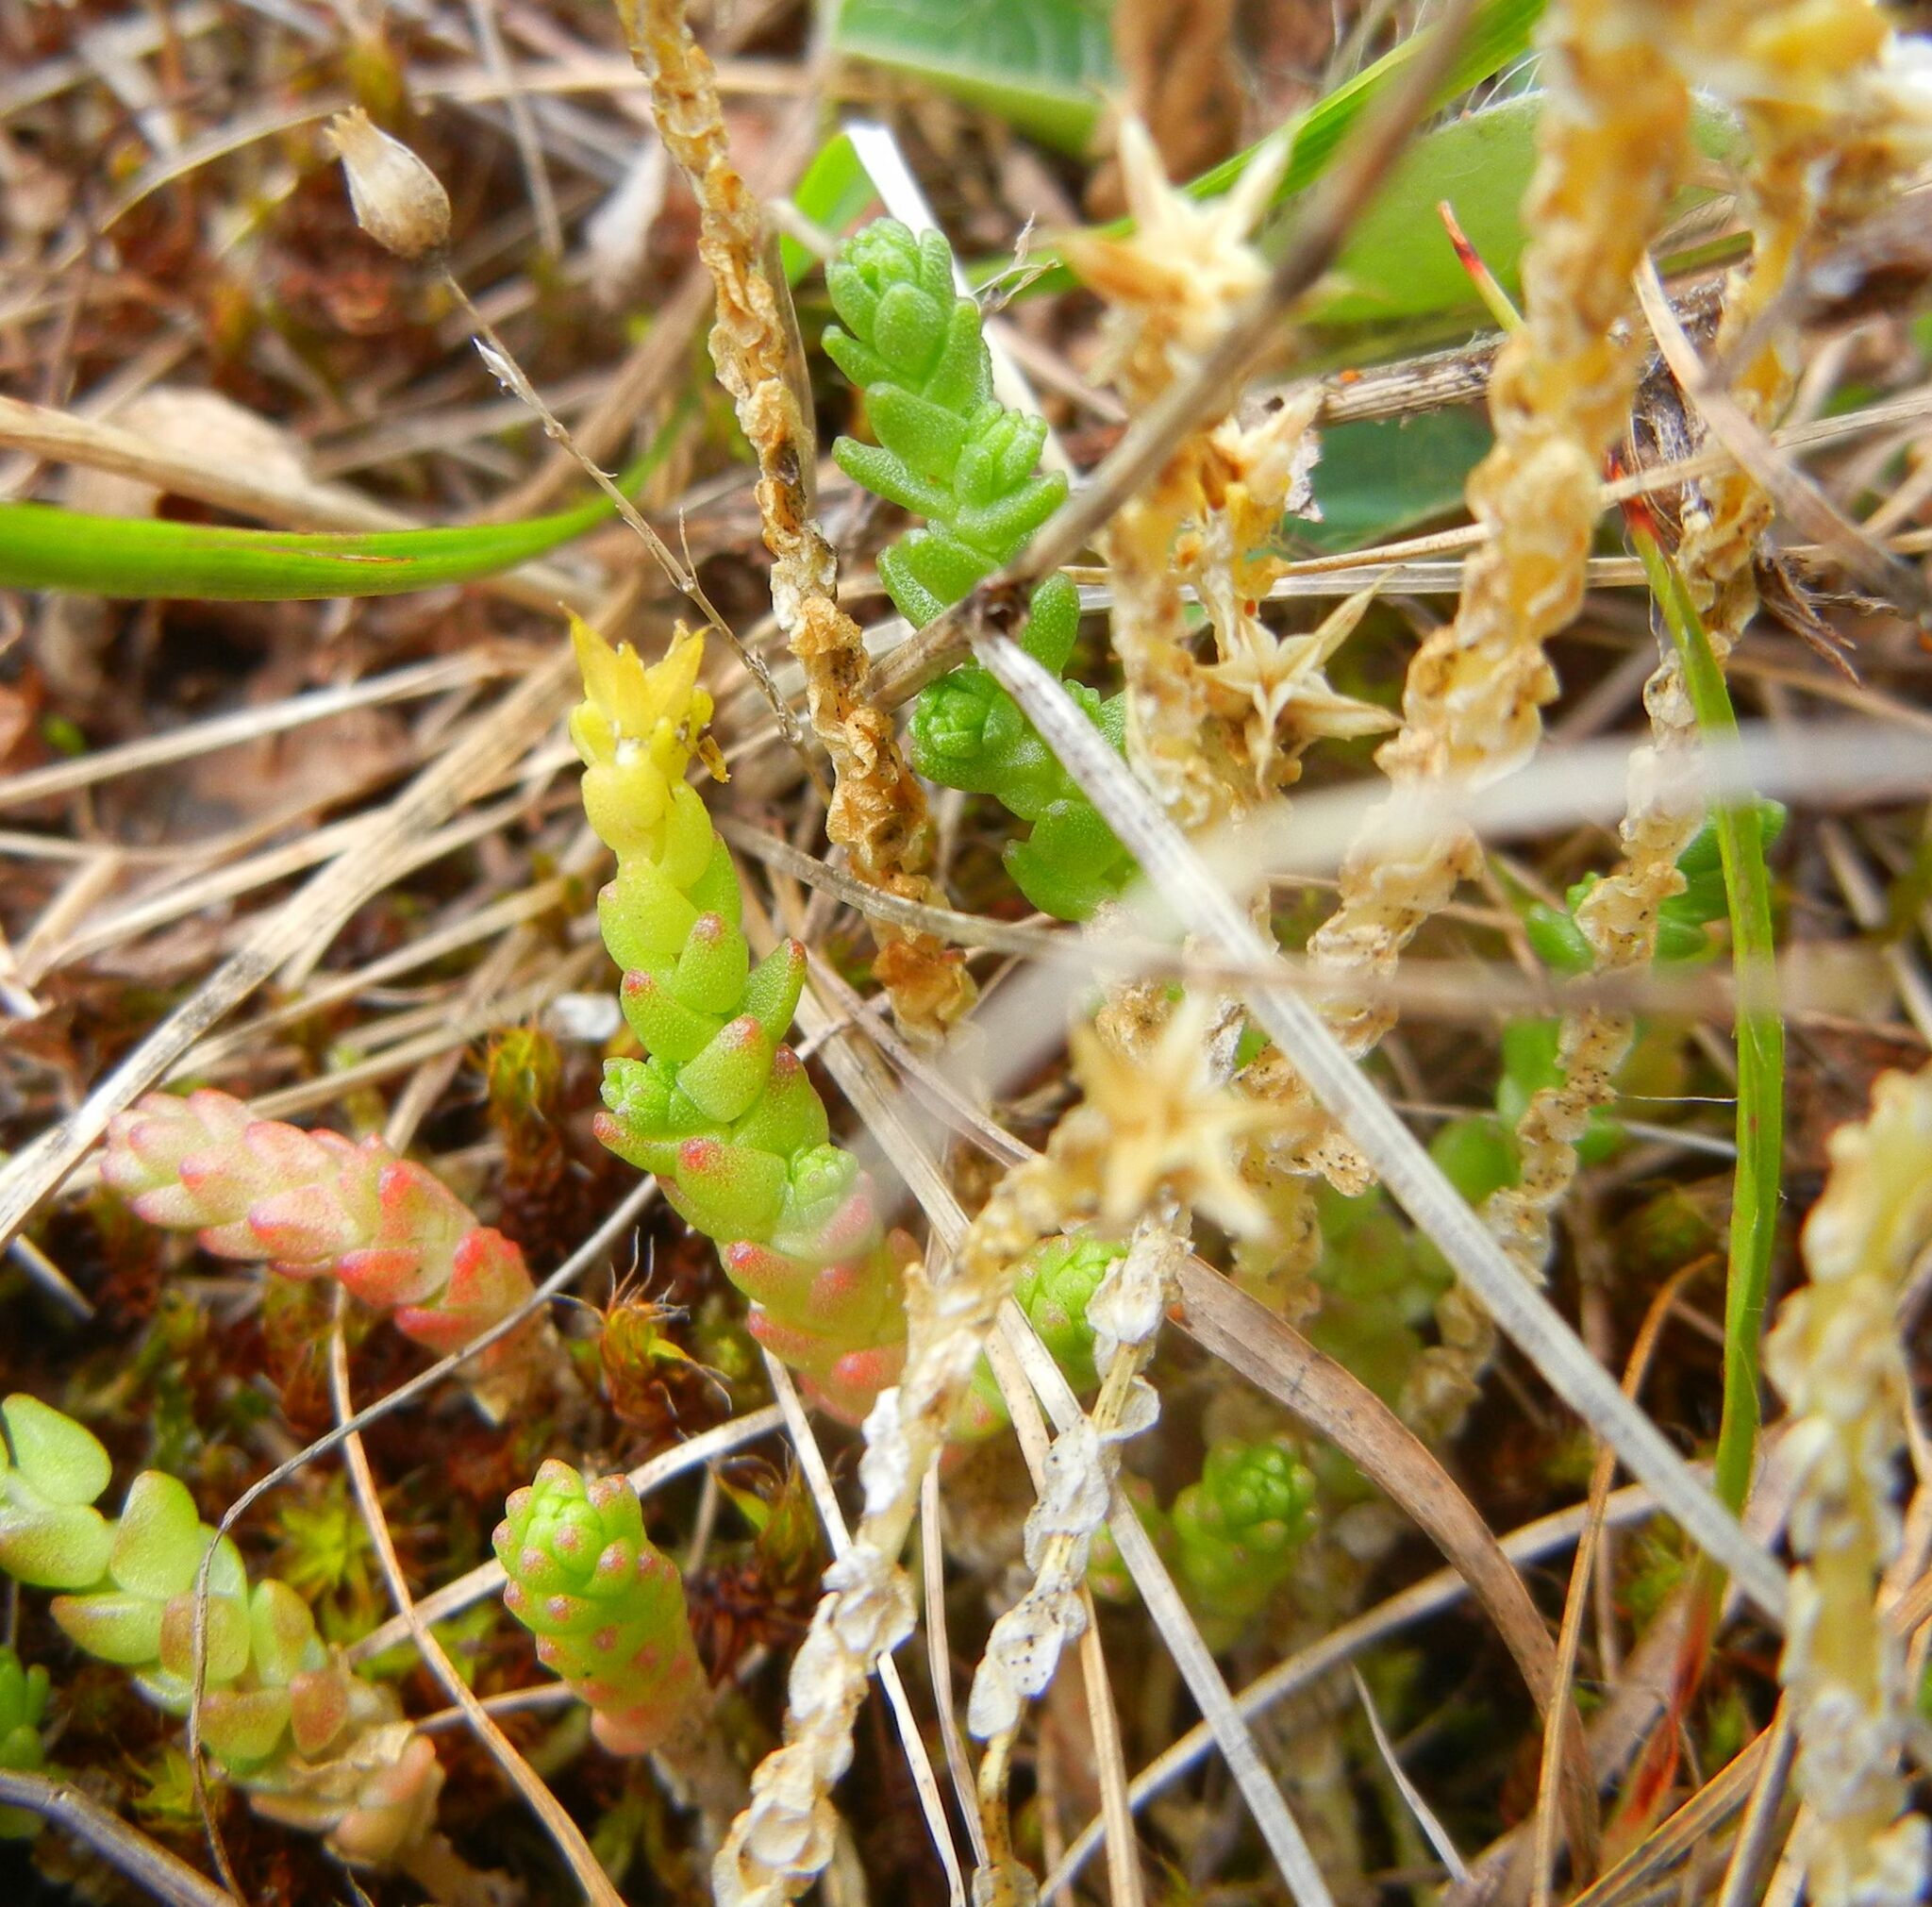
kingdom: Plantae
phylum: Tracheophyta
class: Magnoliopsida
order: Saxifragales
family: Crassulaceae
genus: Sedum
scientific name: Sedum acre
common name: Biting stonecrop
